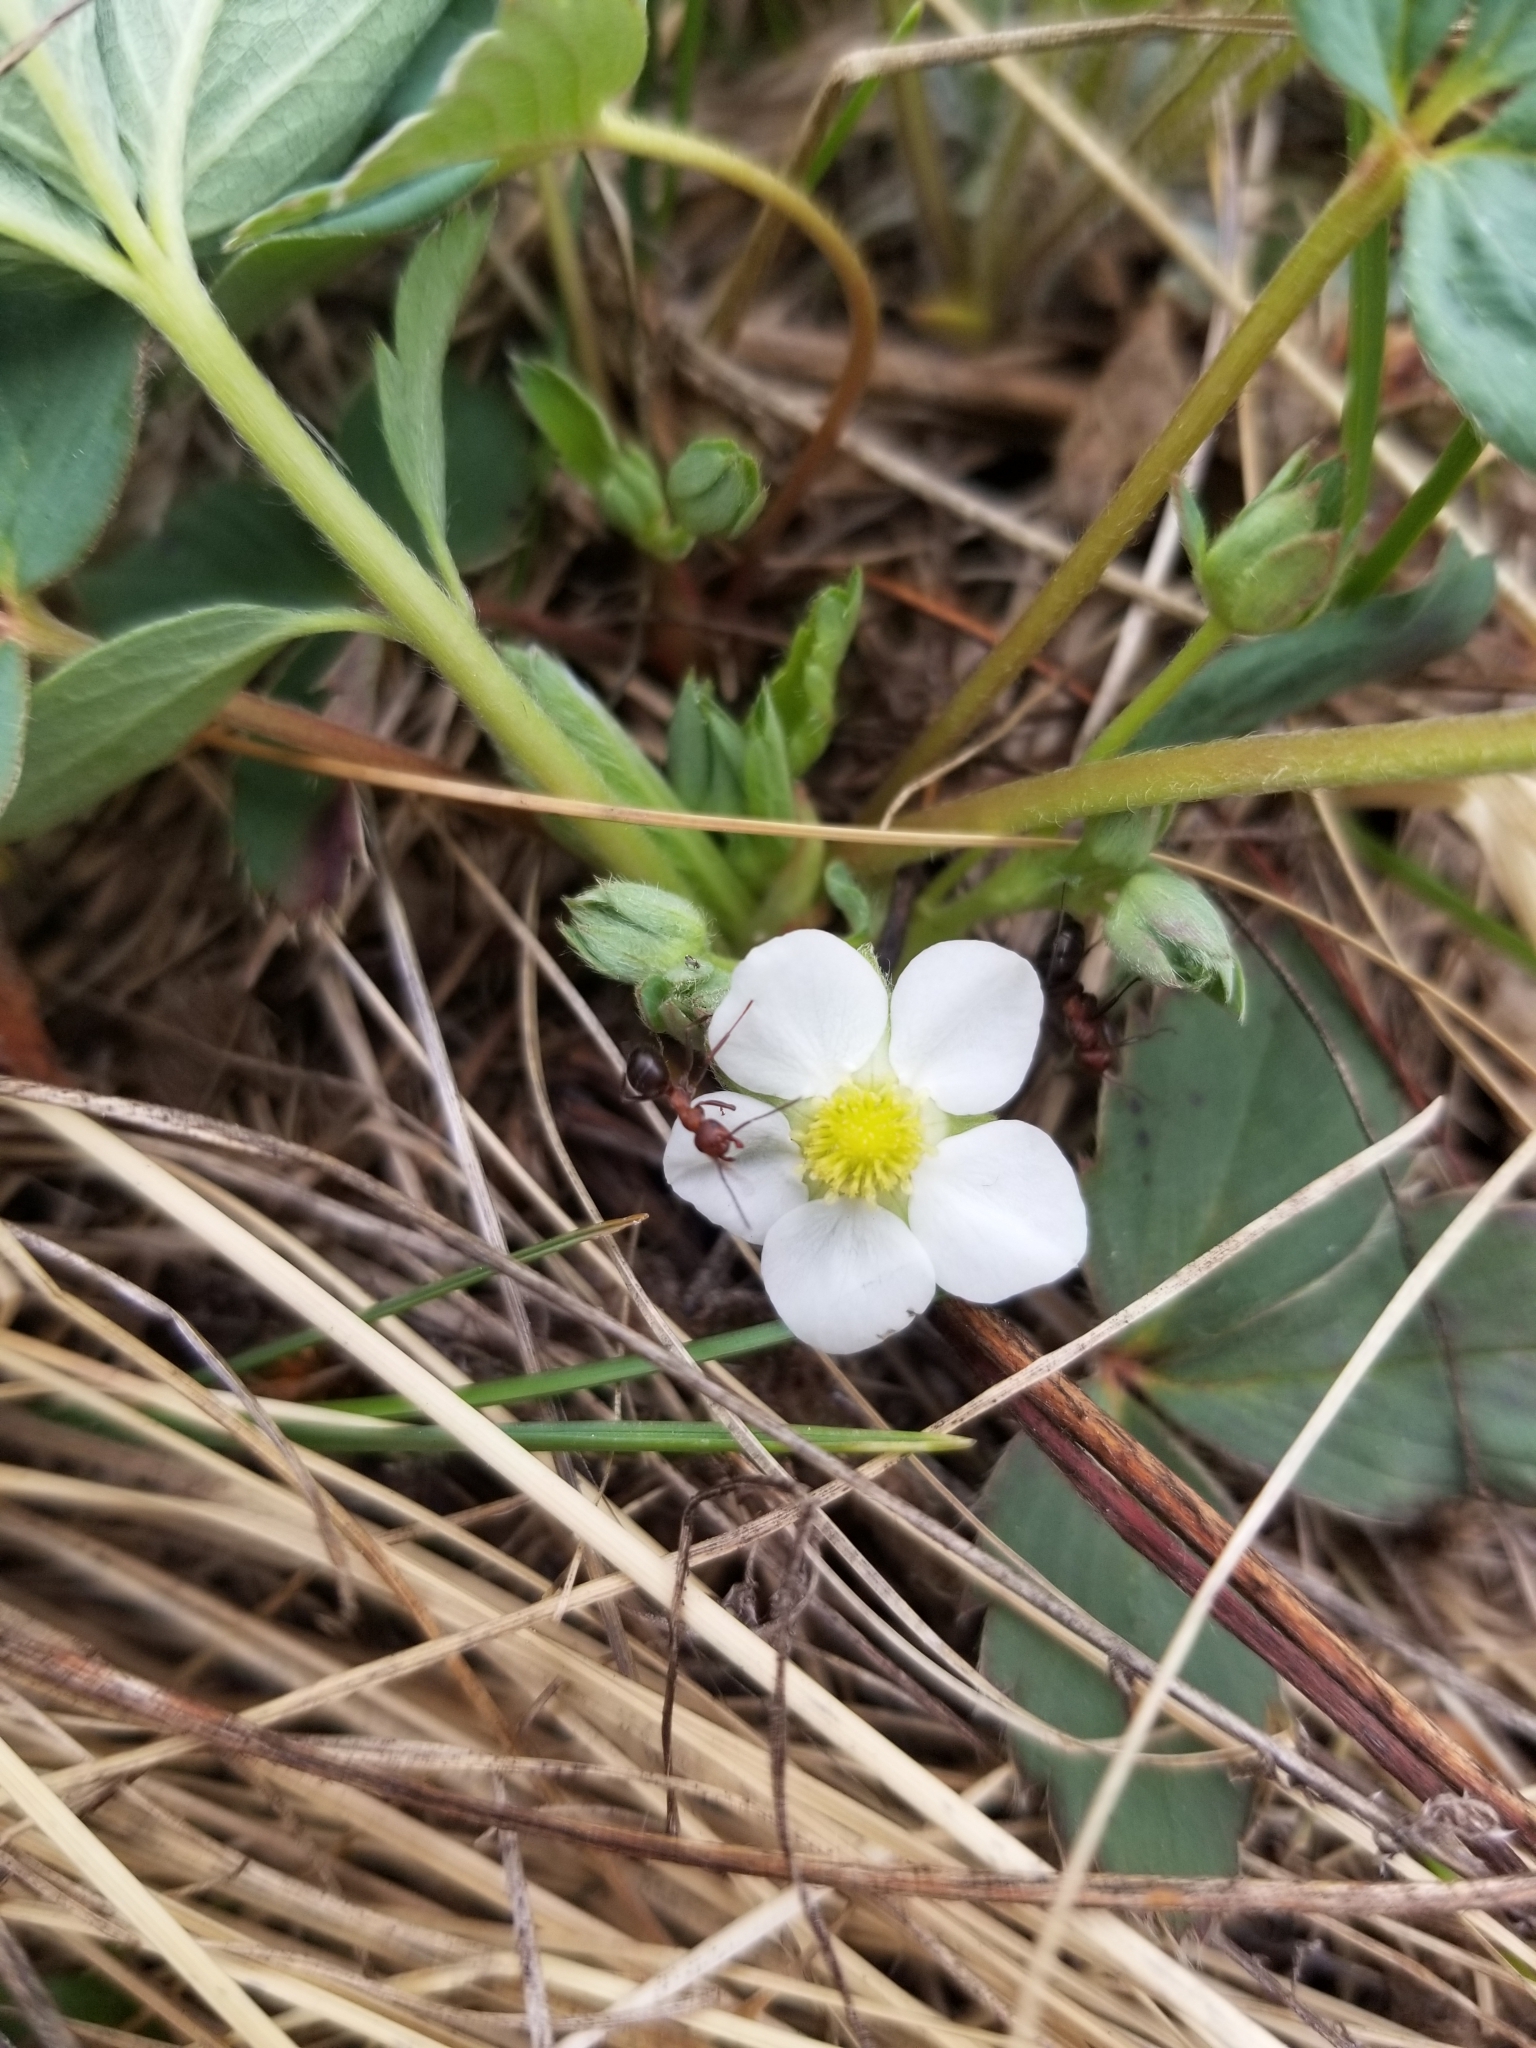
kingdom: Plantae
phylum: Tracheophyta
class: Magnoliopsida
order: Rosales
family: Rosaceae
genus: Fragaria
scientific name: Fragaria virginiana
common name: Thickleaved wild strawberry
